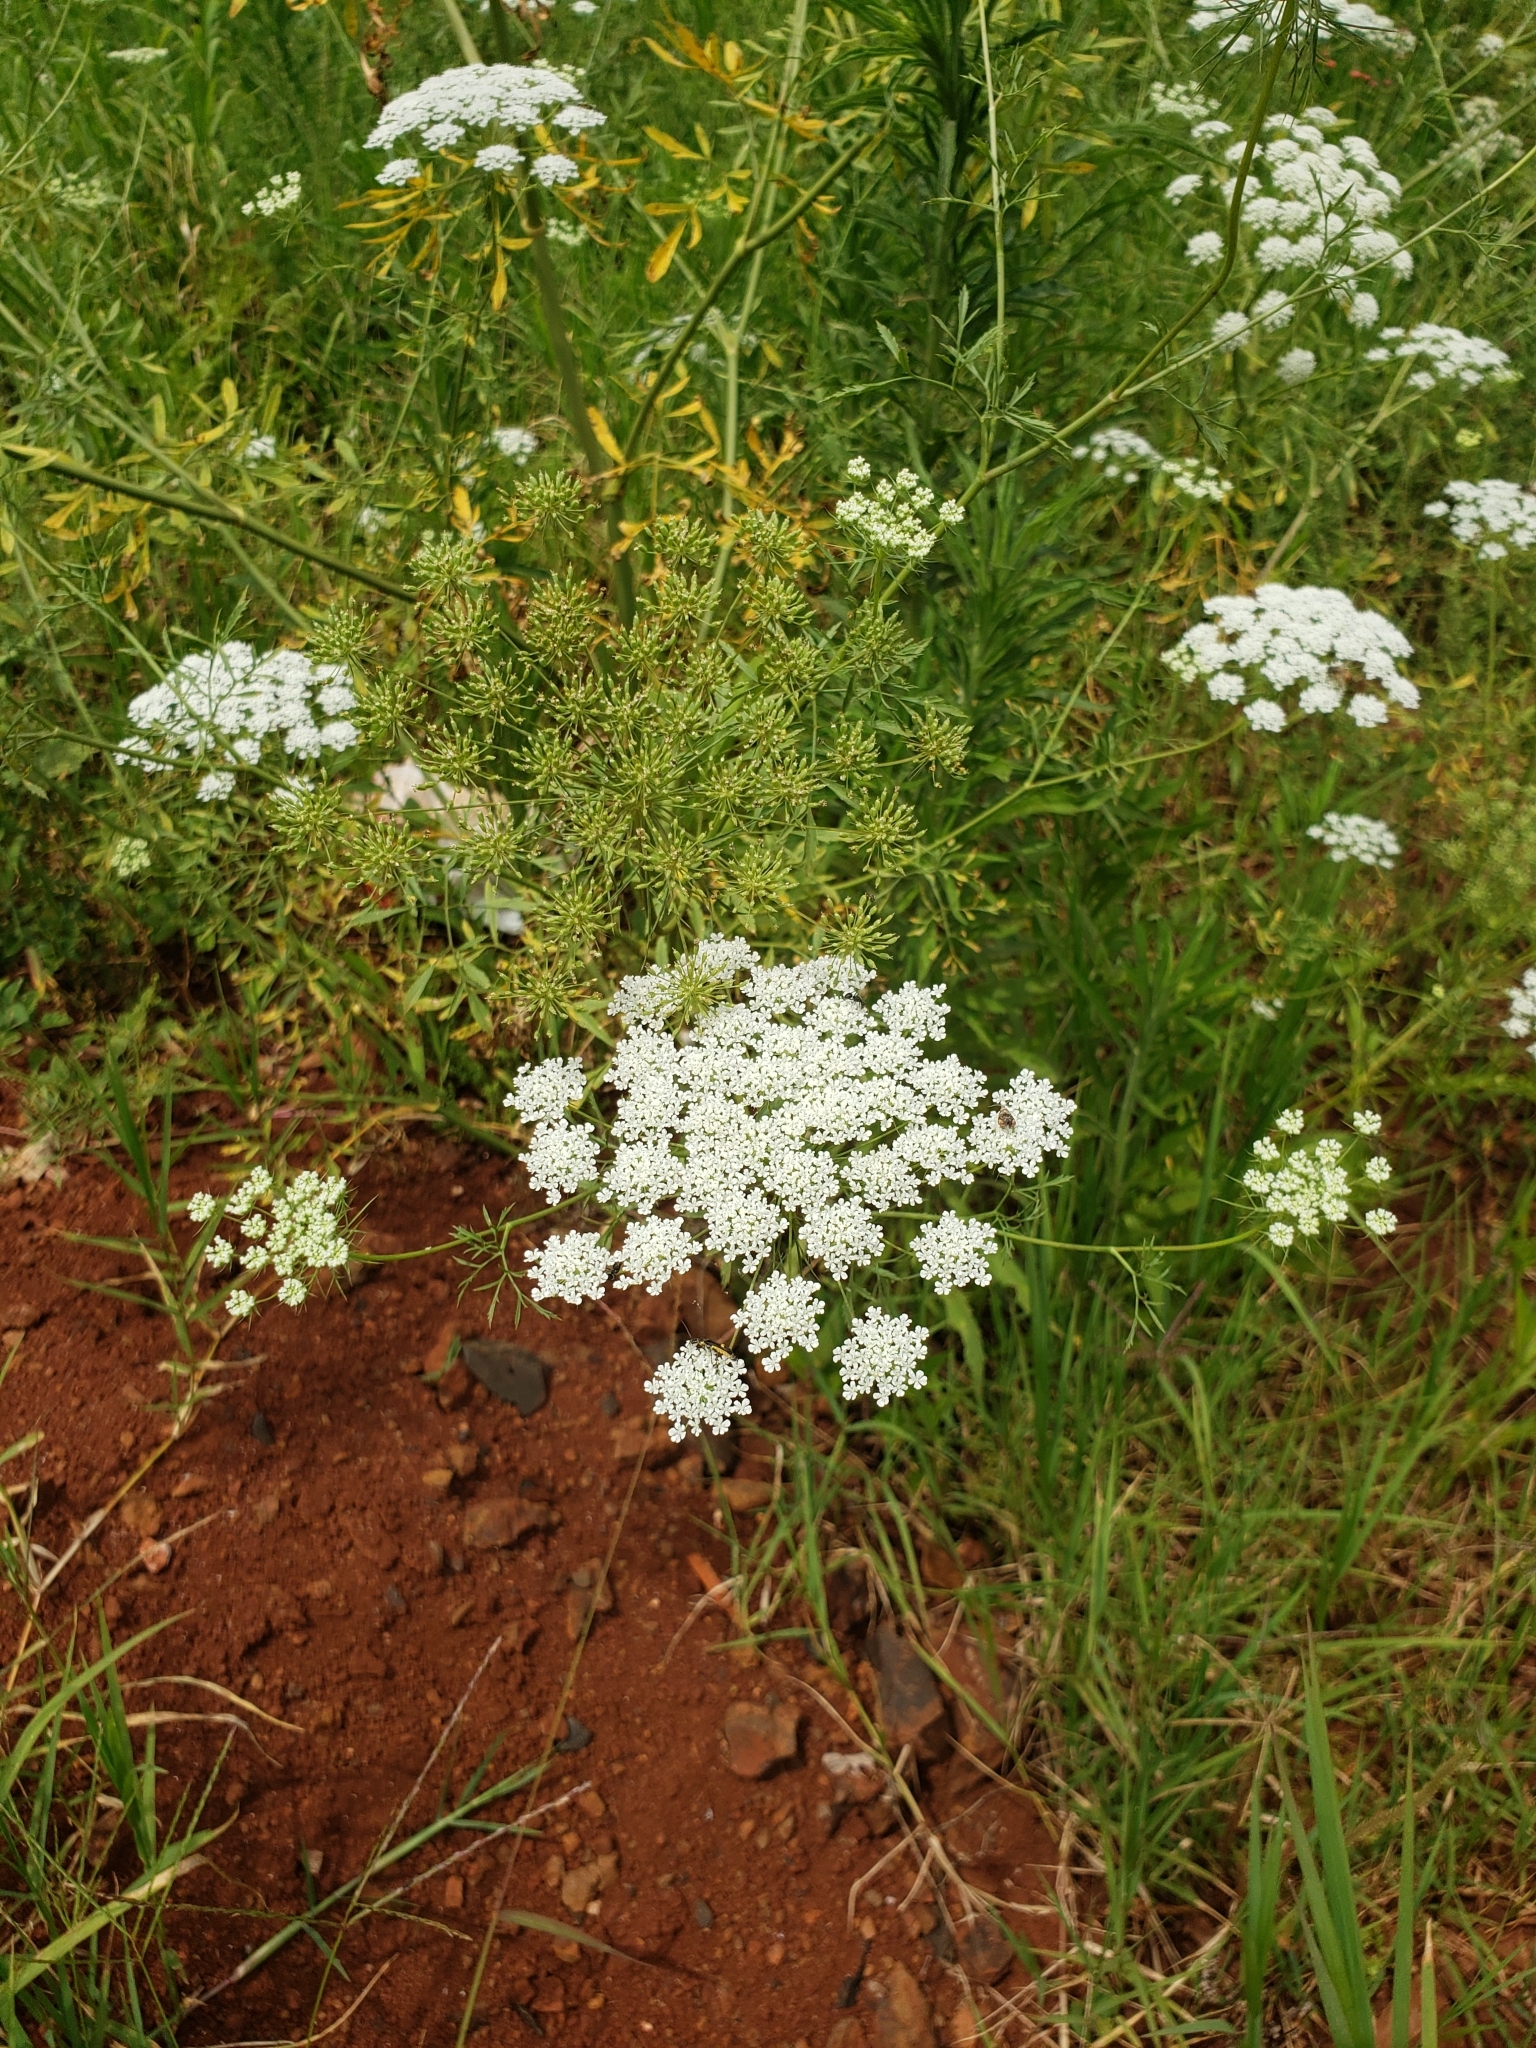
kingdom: Plantae
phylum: Tracheophyta
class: Magnoliopsida
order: Apiales
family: Apiaceae
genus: Daucus
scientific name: Daucus carota
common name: Wild carrot
